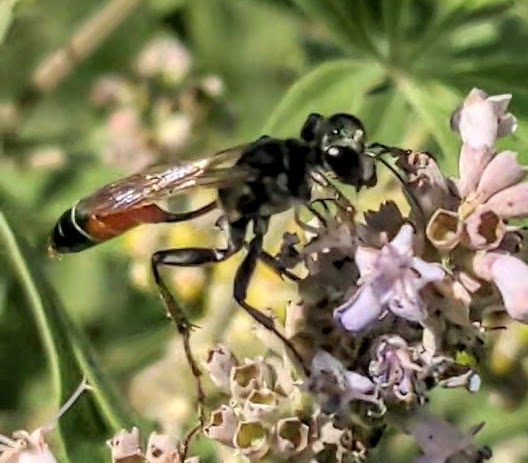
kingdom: Animalia
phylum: Arthropoda
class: Insecta
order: Hymenoptera
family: Sphecidae
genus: Prionyx
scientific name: Prionyx kirbii
